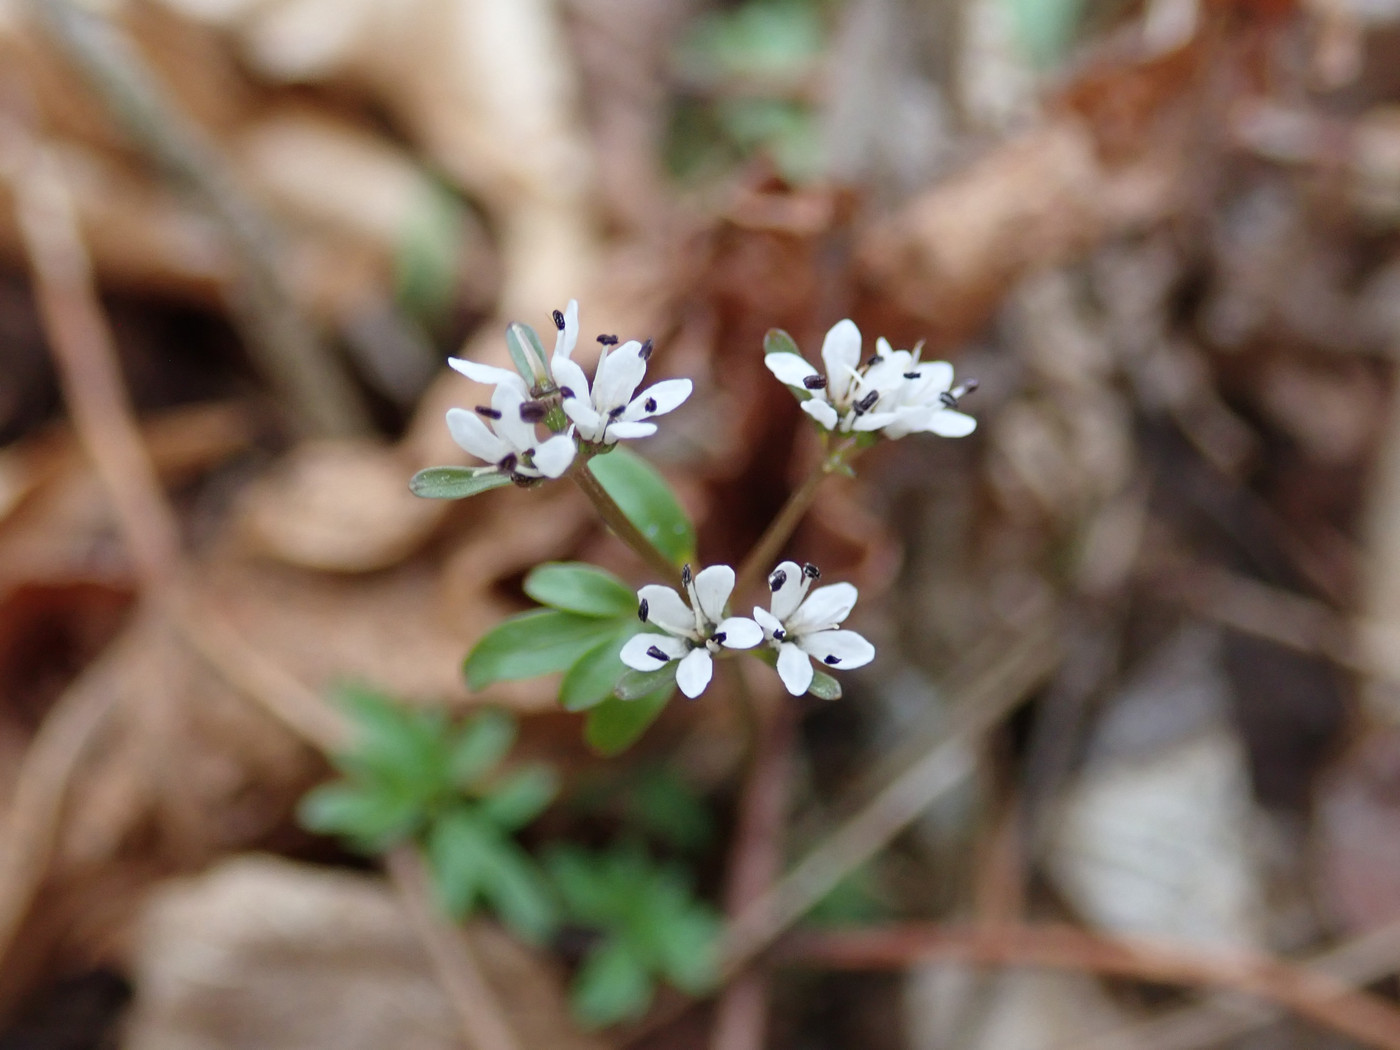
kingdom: Plantae
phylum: Tracheophyta
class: Magnoliopsida
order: Apiales
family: Apiaceae
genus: Erigenia
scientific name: Erigenia bulbosa
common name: Pepper-and-salt
